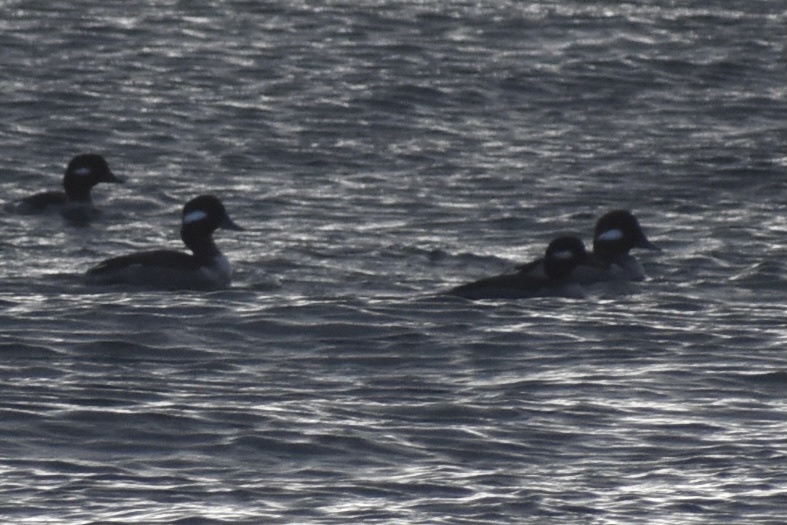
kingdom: Animalia
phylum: Chordata
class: Aves
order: Anseriformes
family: Anatidae
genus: Bucephala
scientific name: Bucephala albeola
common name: Bufflehead
